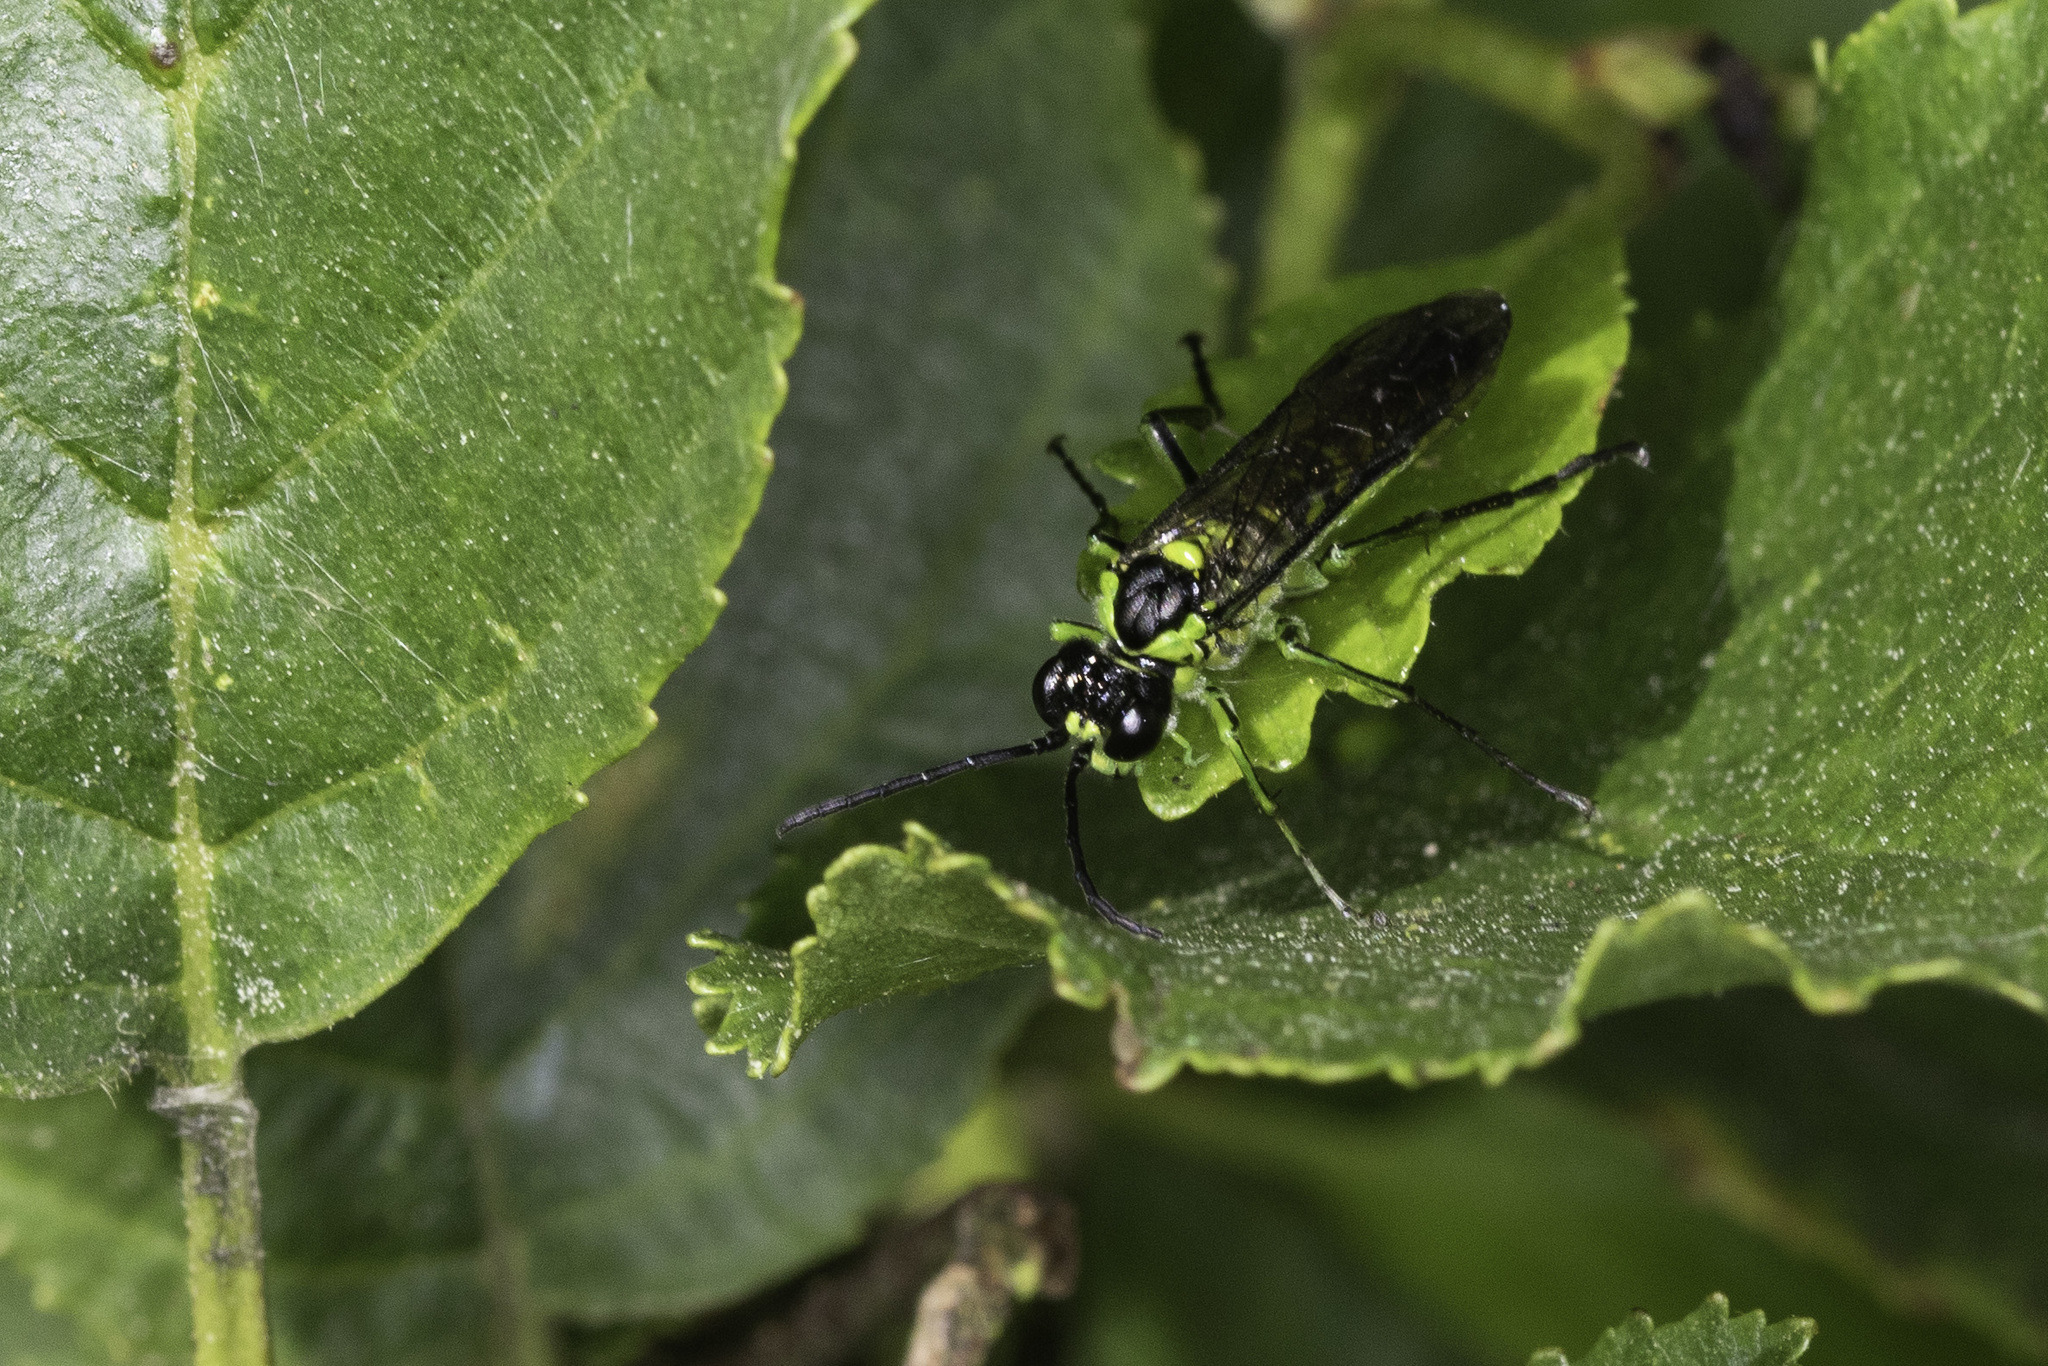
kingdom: Animalia
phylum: Arthropoda
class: Insecta
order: Hymenoptera
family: Tenthredinidae
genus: Tenthredo
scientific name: Tenthredo mesomela
